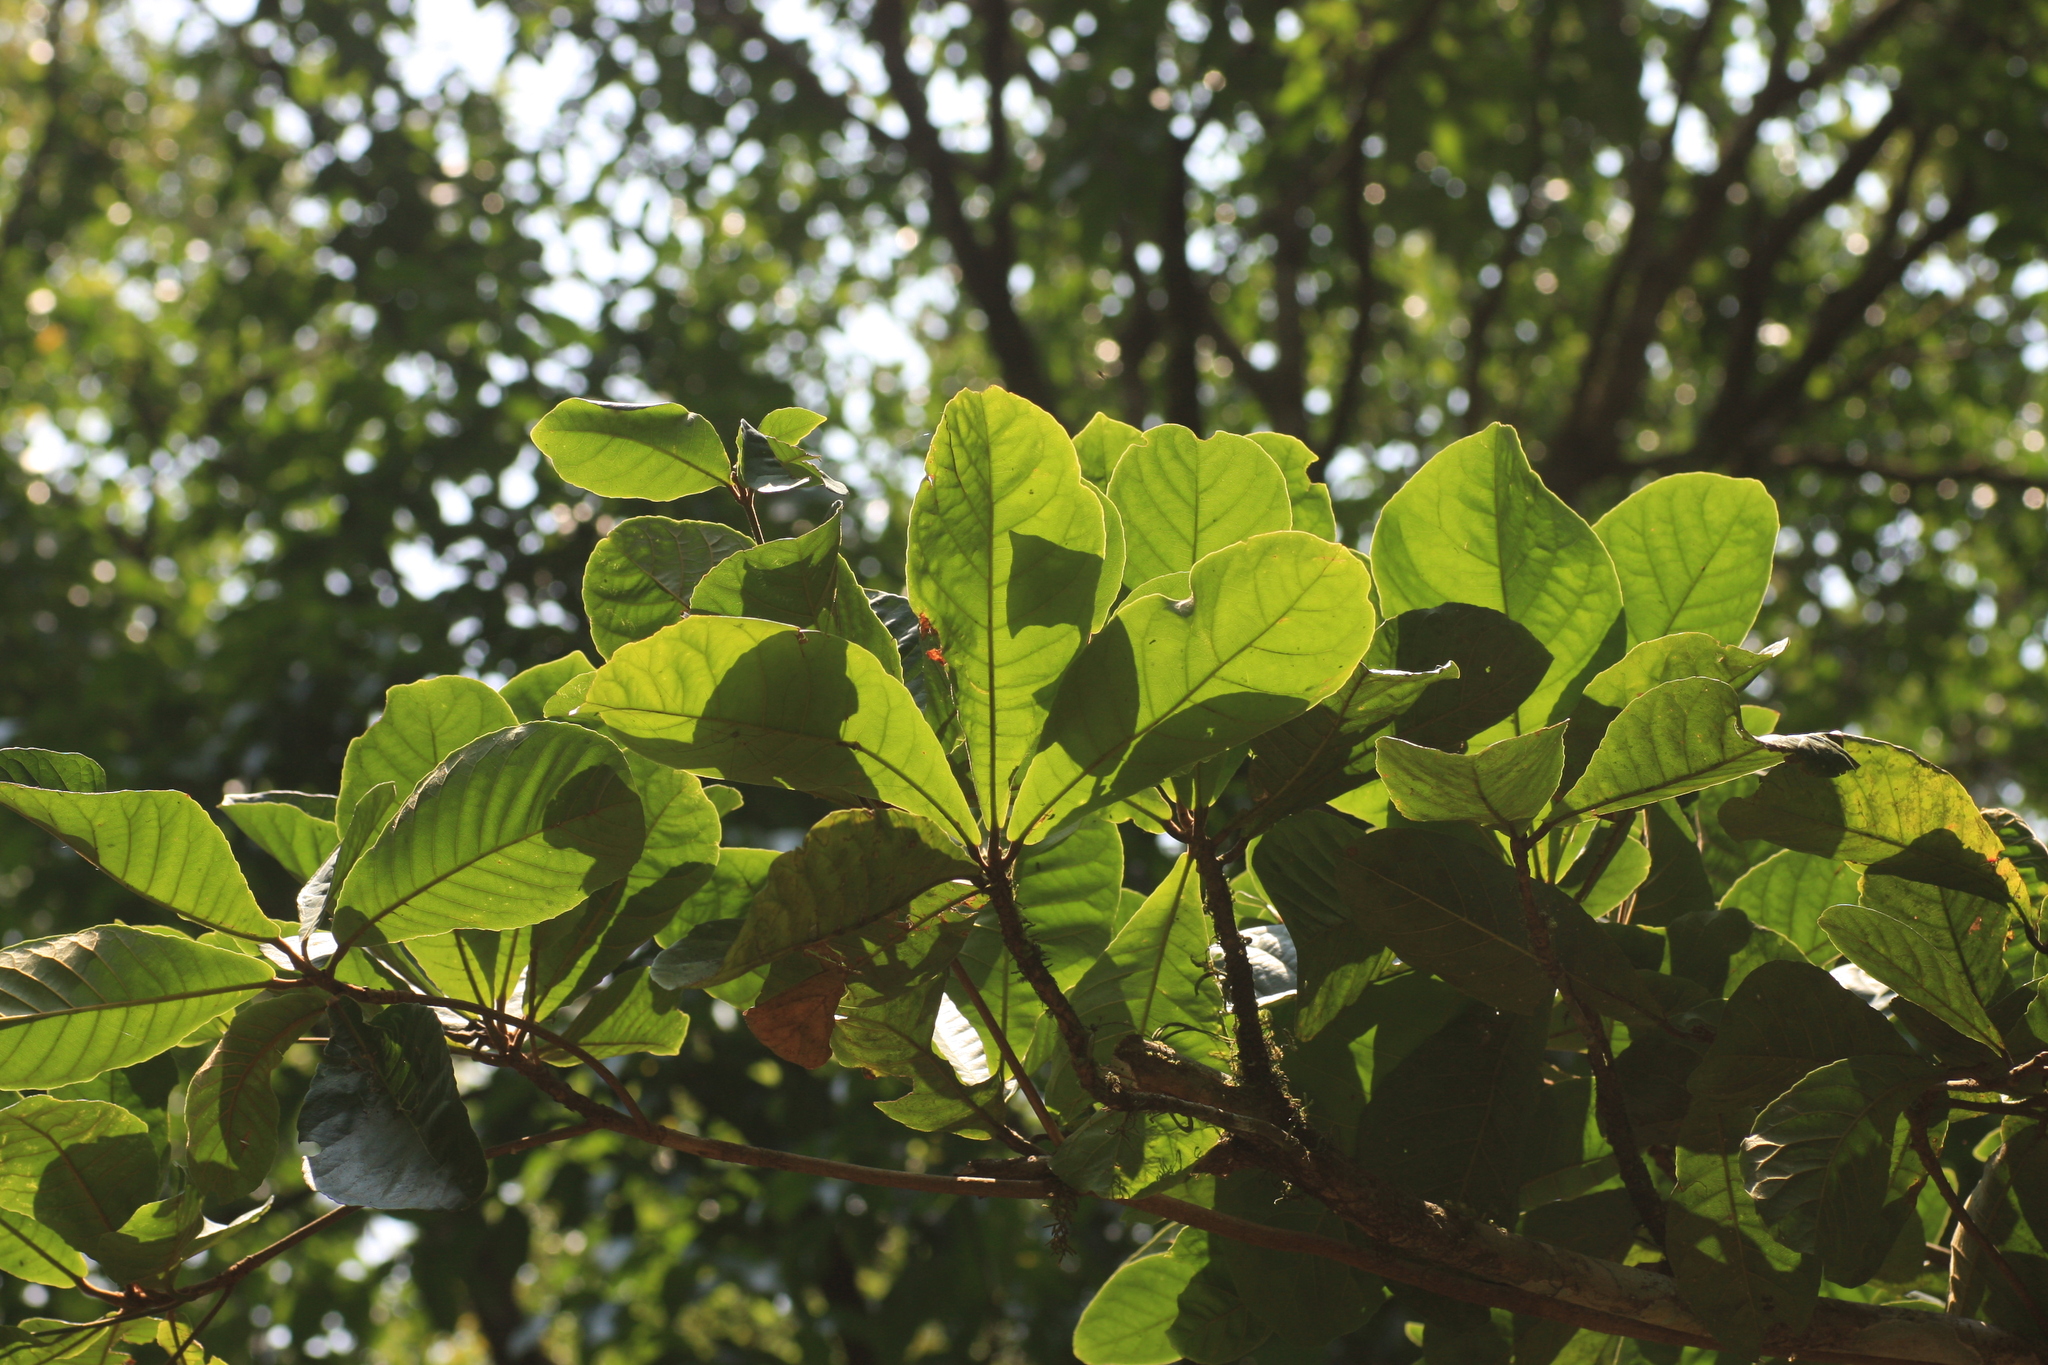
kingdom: Plantae
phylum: Tracheophyta
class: Magnoliopsida
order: Oxalidales
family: Elaeocarpaceae
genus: Elaeocarpus
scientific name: Elaeocarpus tuberculatus
